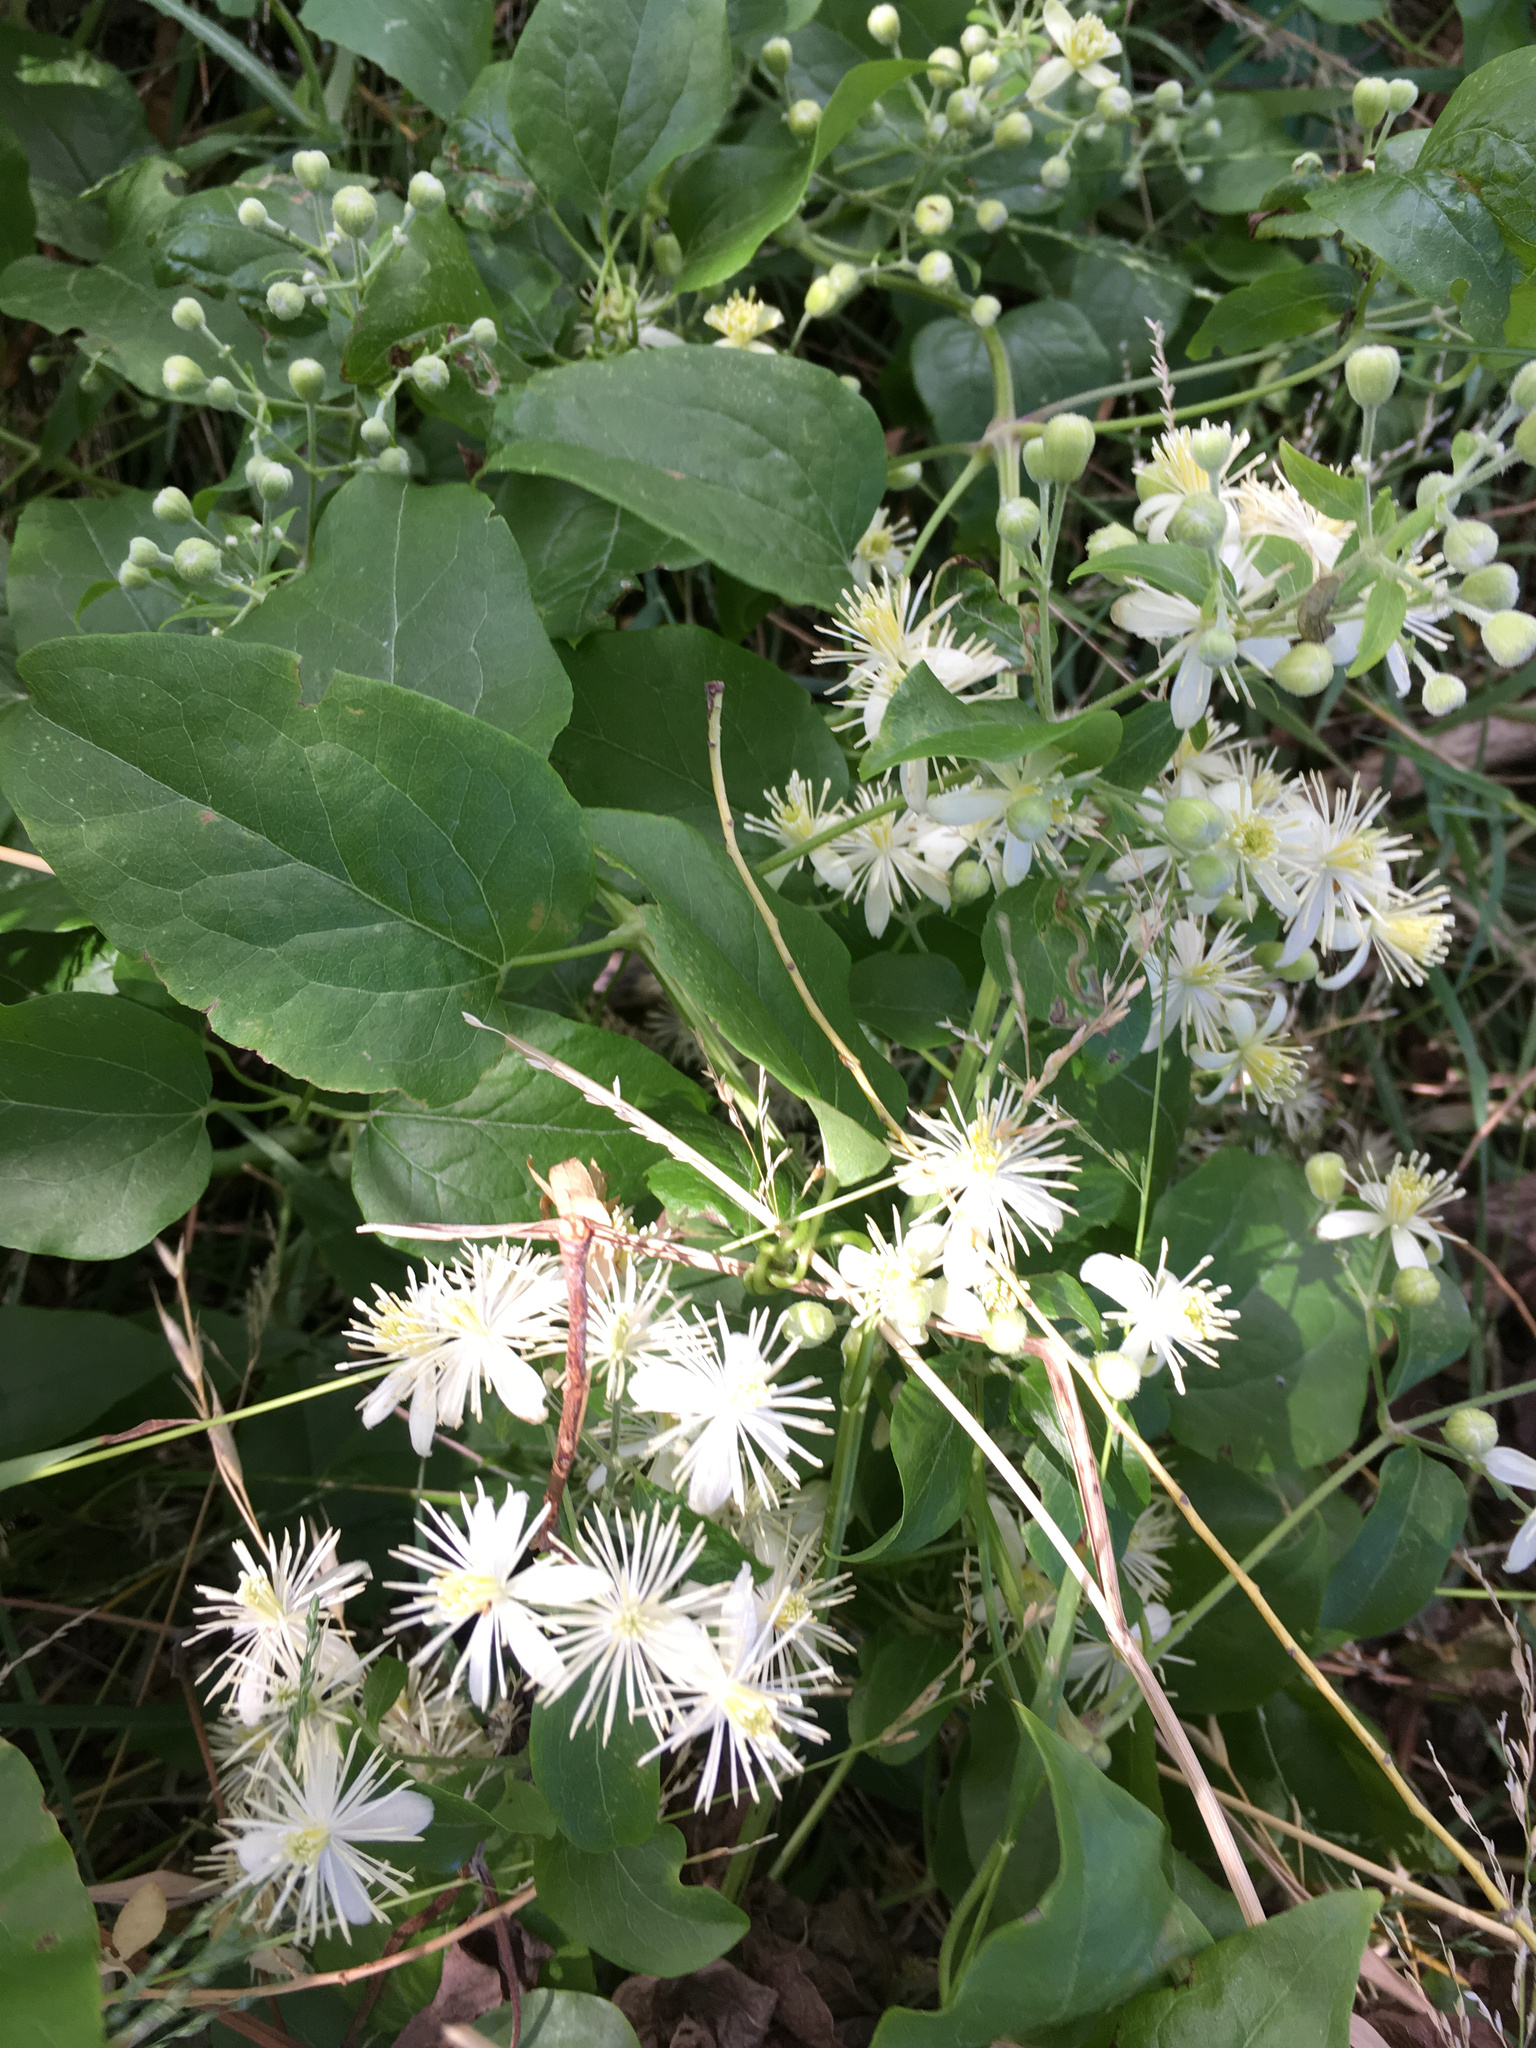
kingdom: Plantae
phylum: Tracheophyta
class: Magnoliopsida
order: Ranunculales
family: Ranunculaceae
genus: Clematis
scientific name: Clematis vitalba
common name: Evergreen clematis
